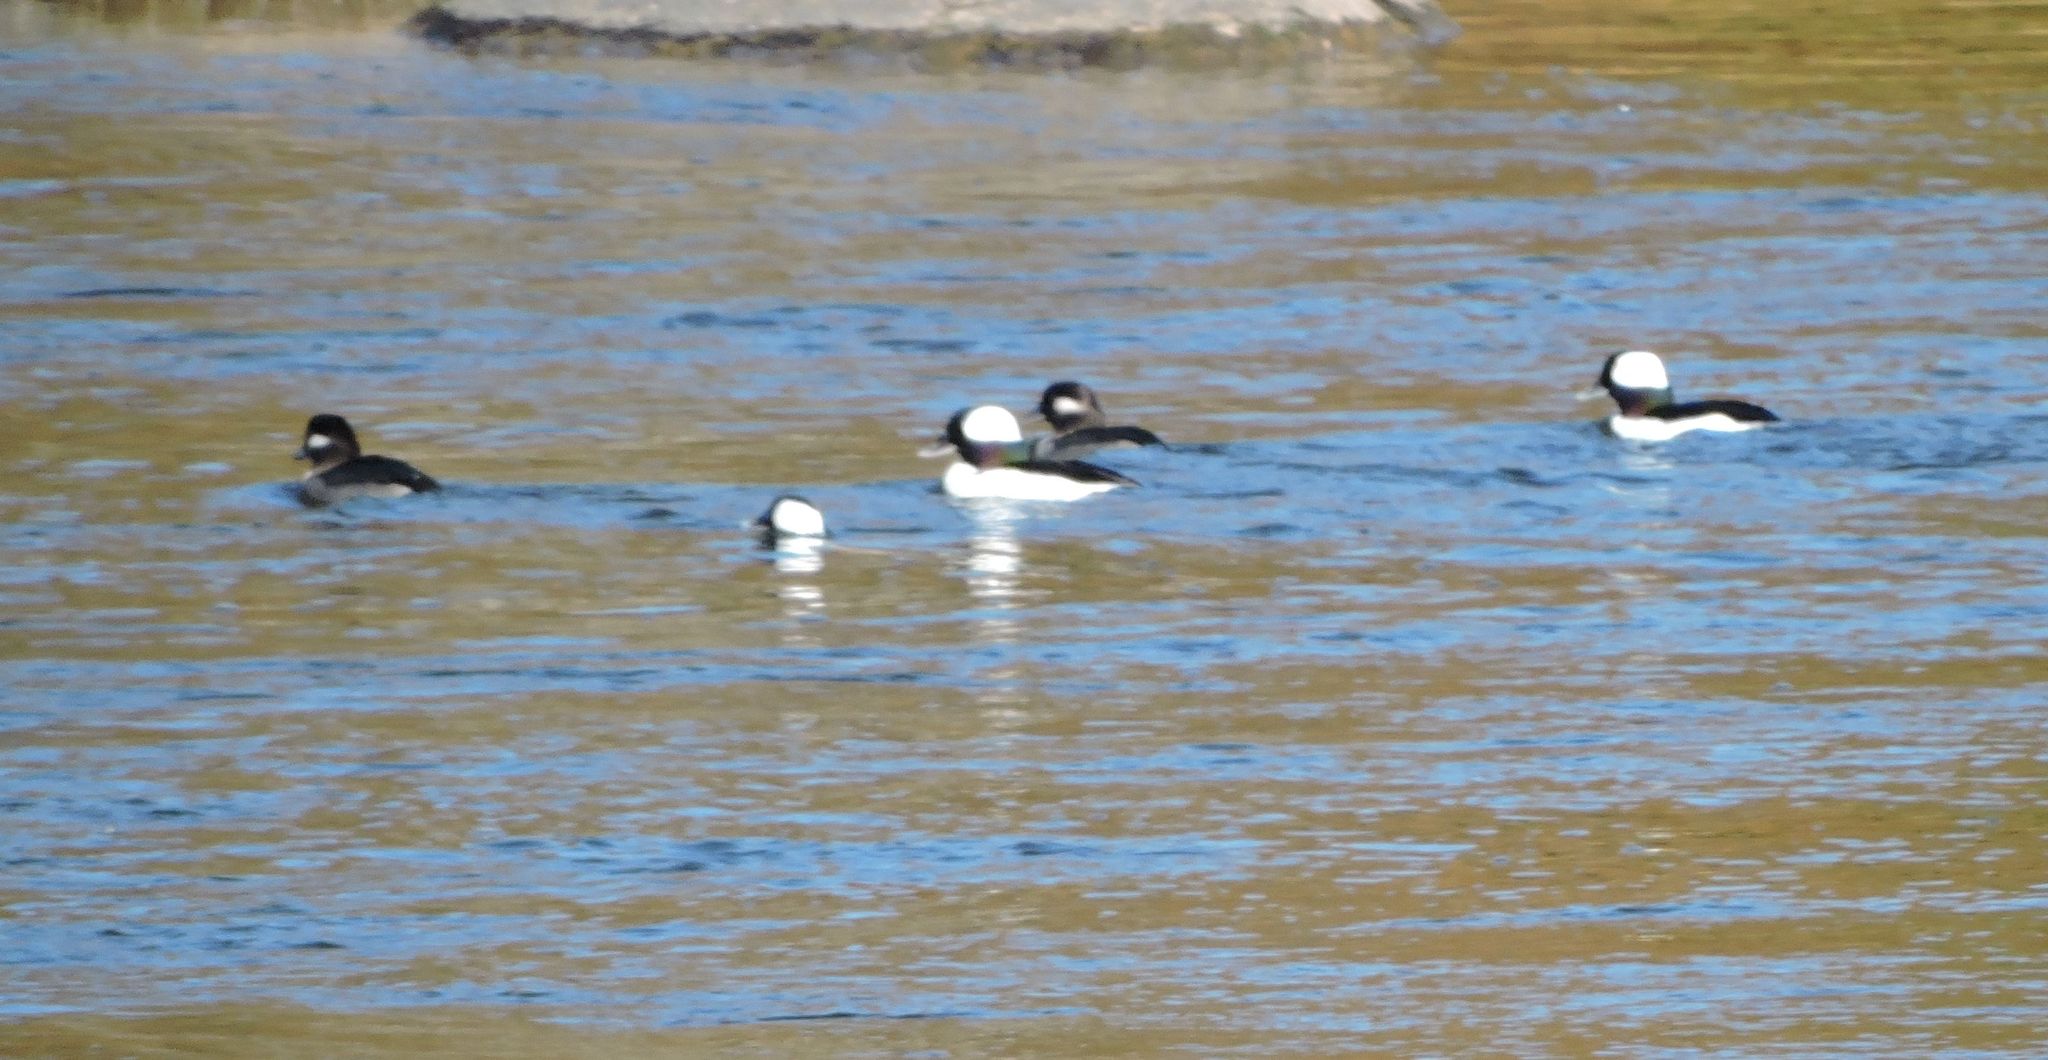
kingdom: Animalia
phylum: Chordata
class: Aves
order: Anseriformes
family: Anatidae
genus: Bucephala
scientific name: Bucephala albeola
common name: Bufflehead
